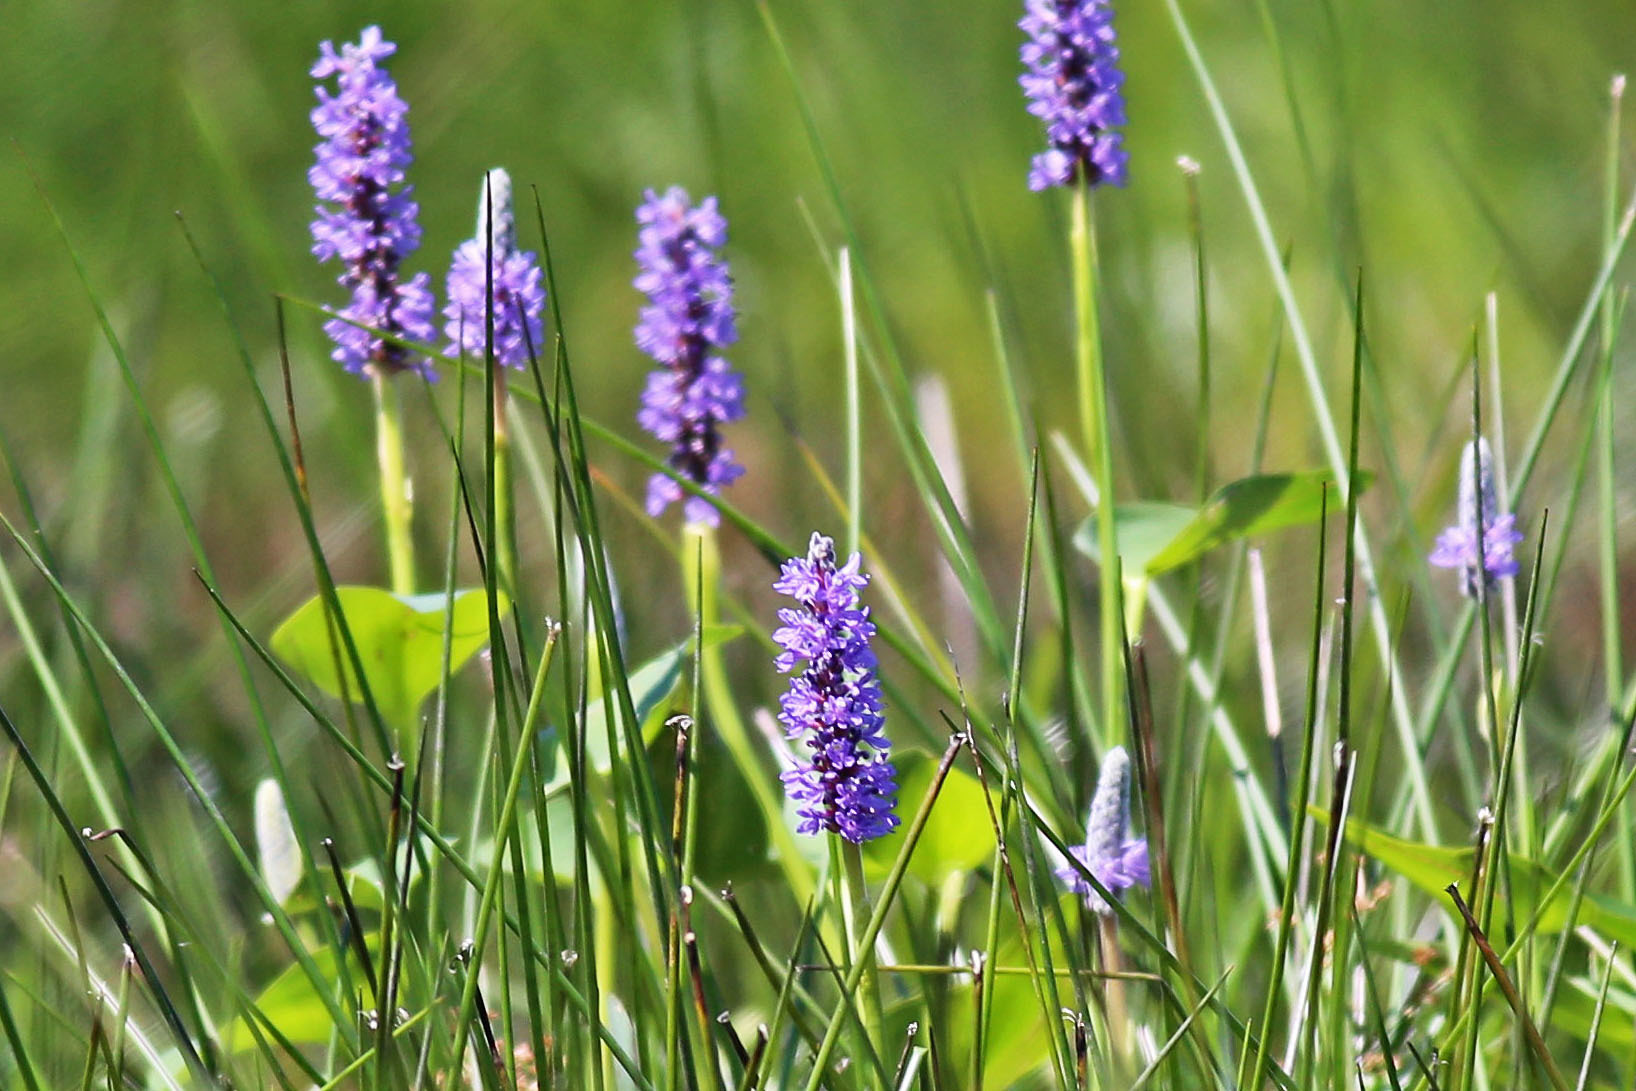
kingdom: Plantae
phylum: Tracheophyta
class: Liliopsida
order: Commelinales
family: Pontederiaceae
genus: Pontederia
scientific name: Pontederia cordata
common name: Pickerelweed
